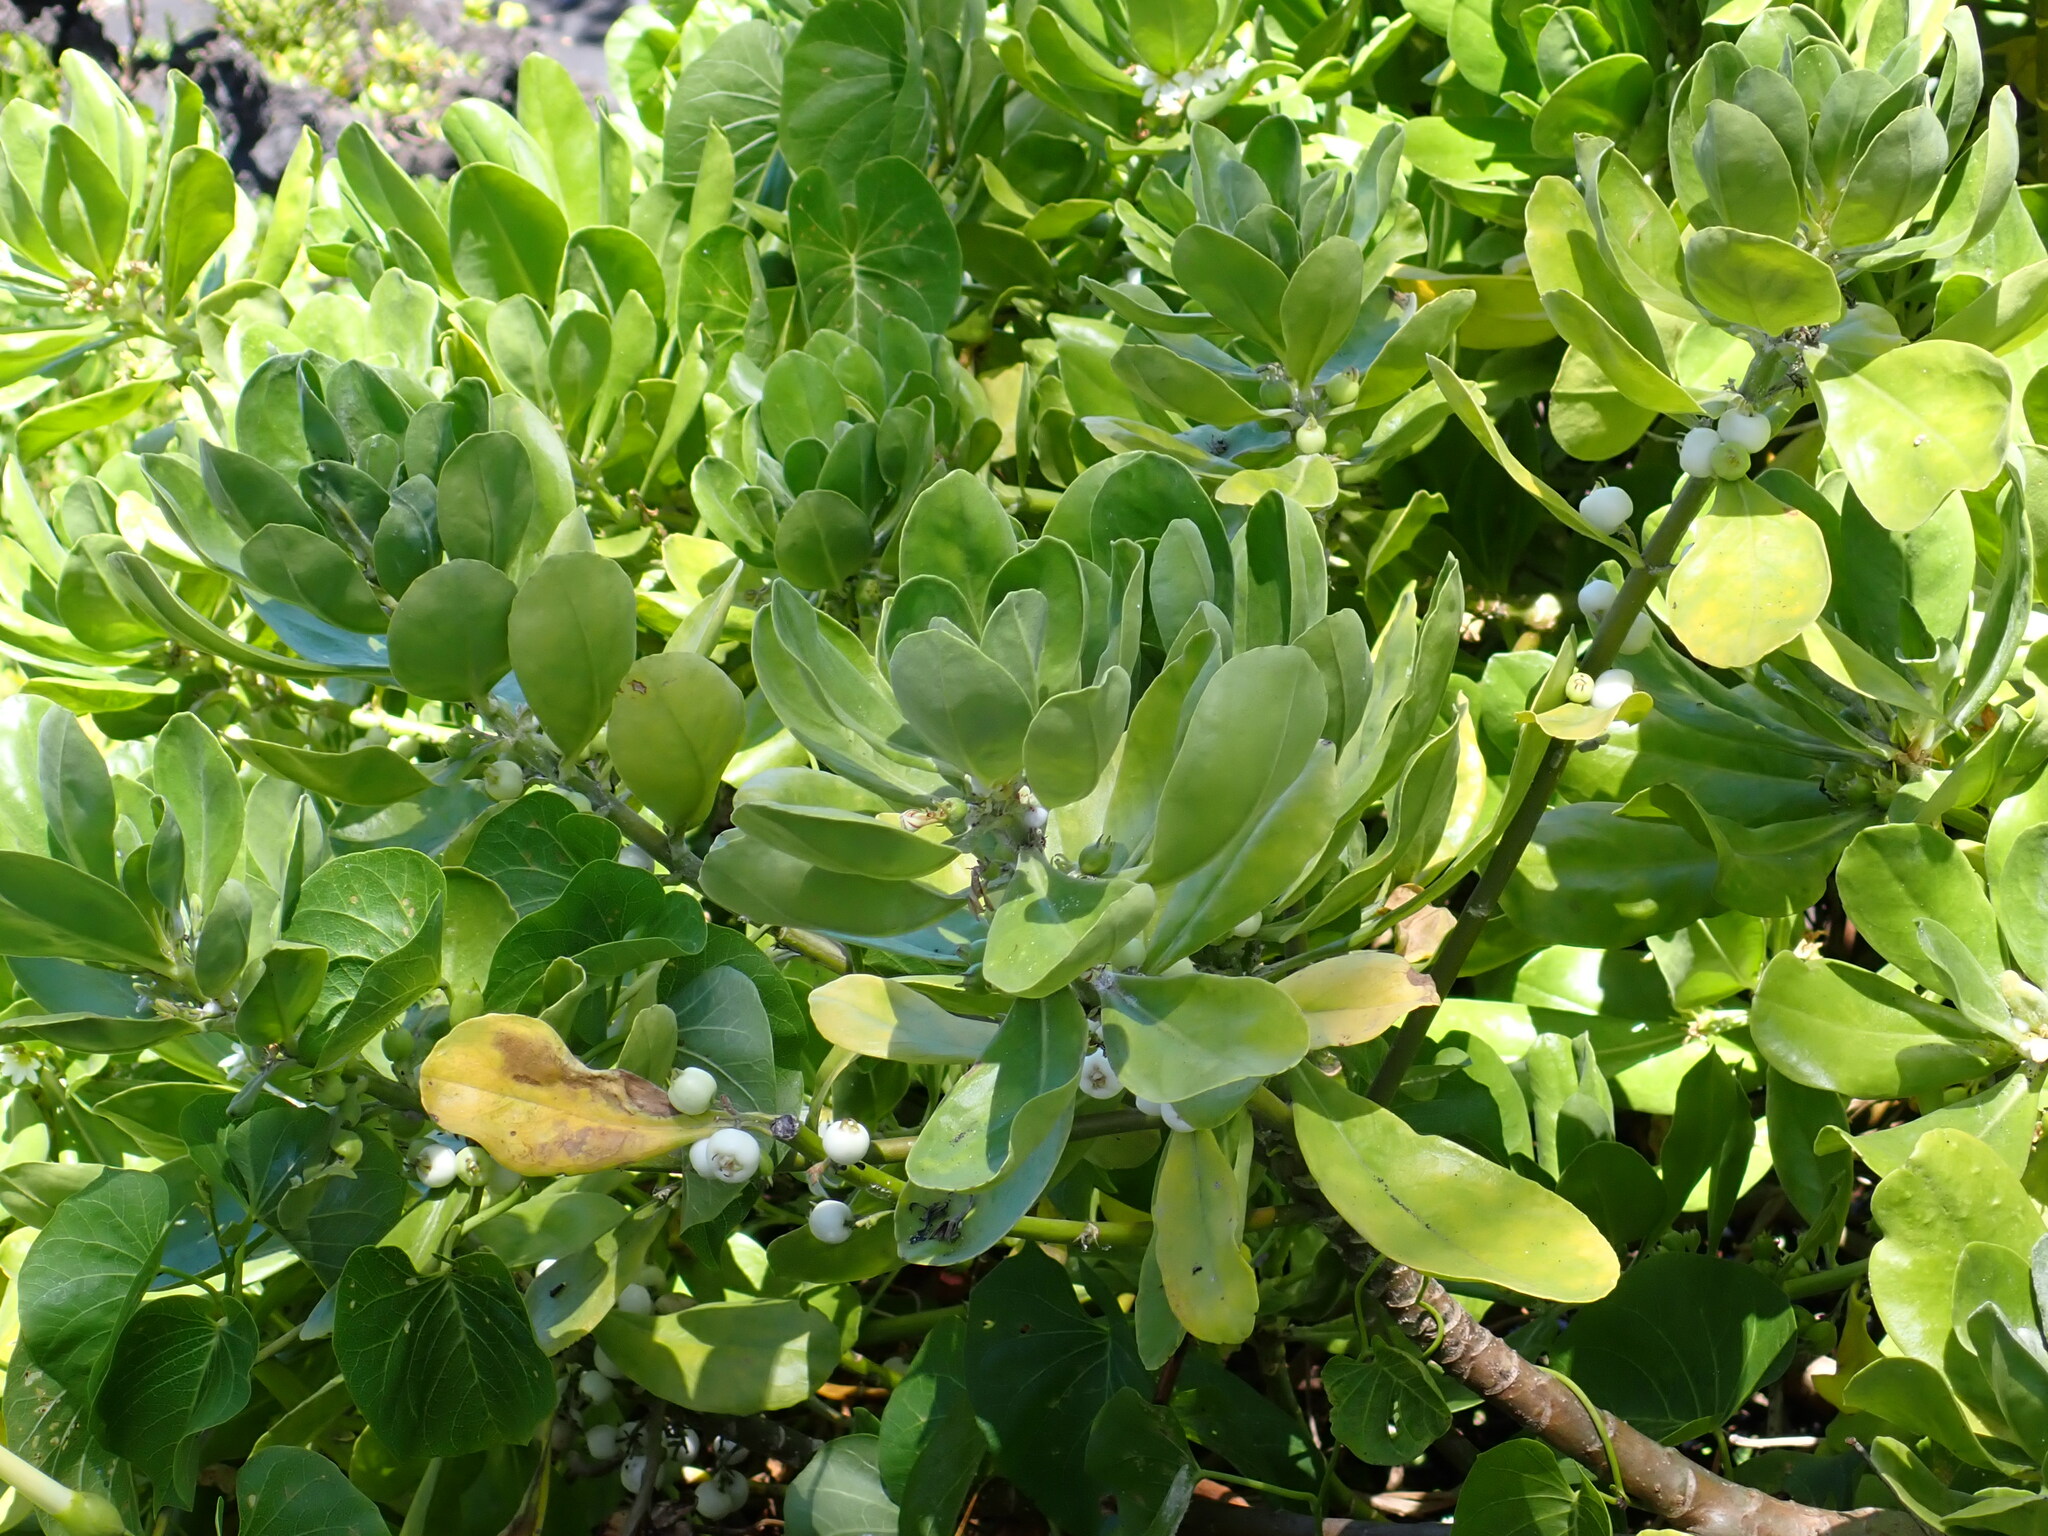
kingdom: Plantae
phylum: Tracheophyta
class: Magnoliopsida
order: Asterales
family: Goodeniaceae
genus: Scaevola
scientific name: Scaevola taccada
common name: Sea lettucetree
